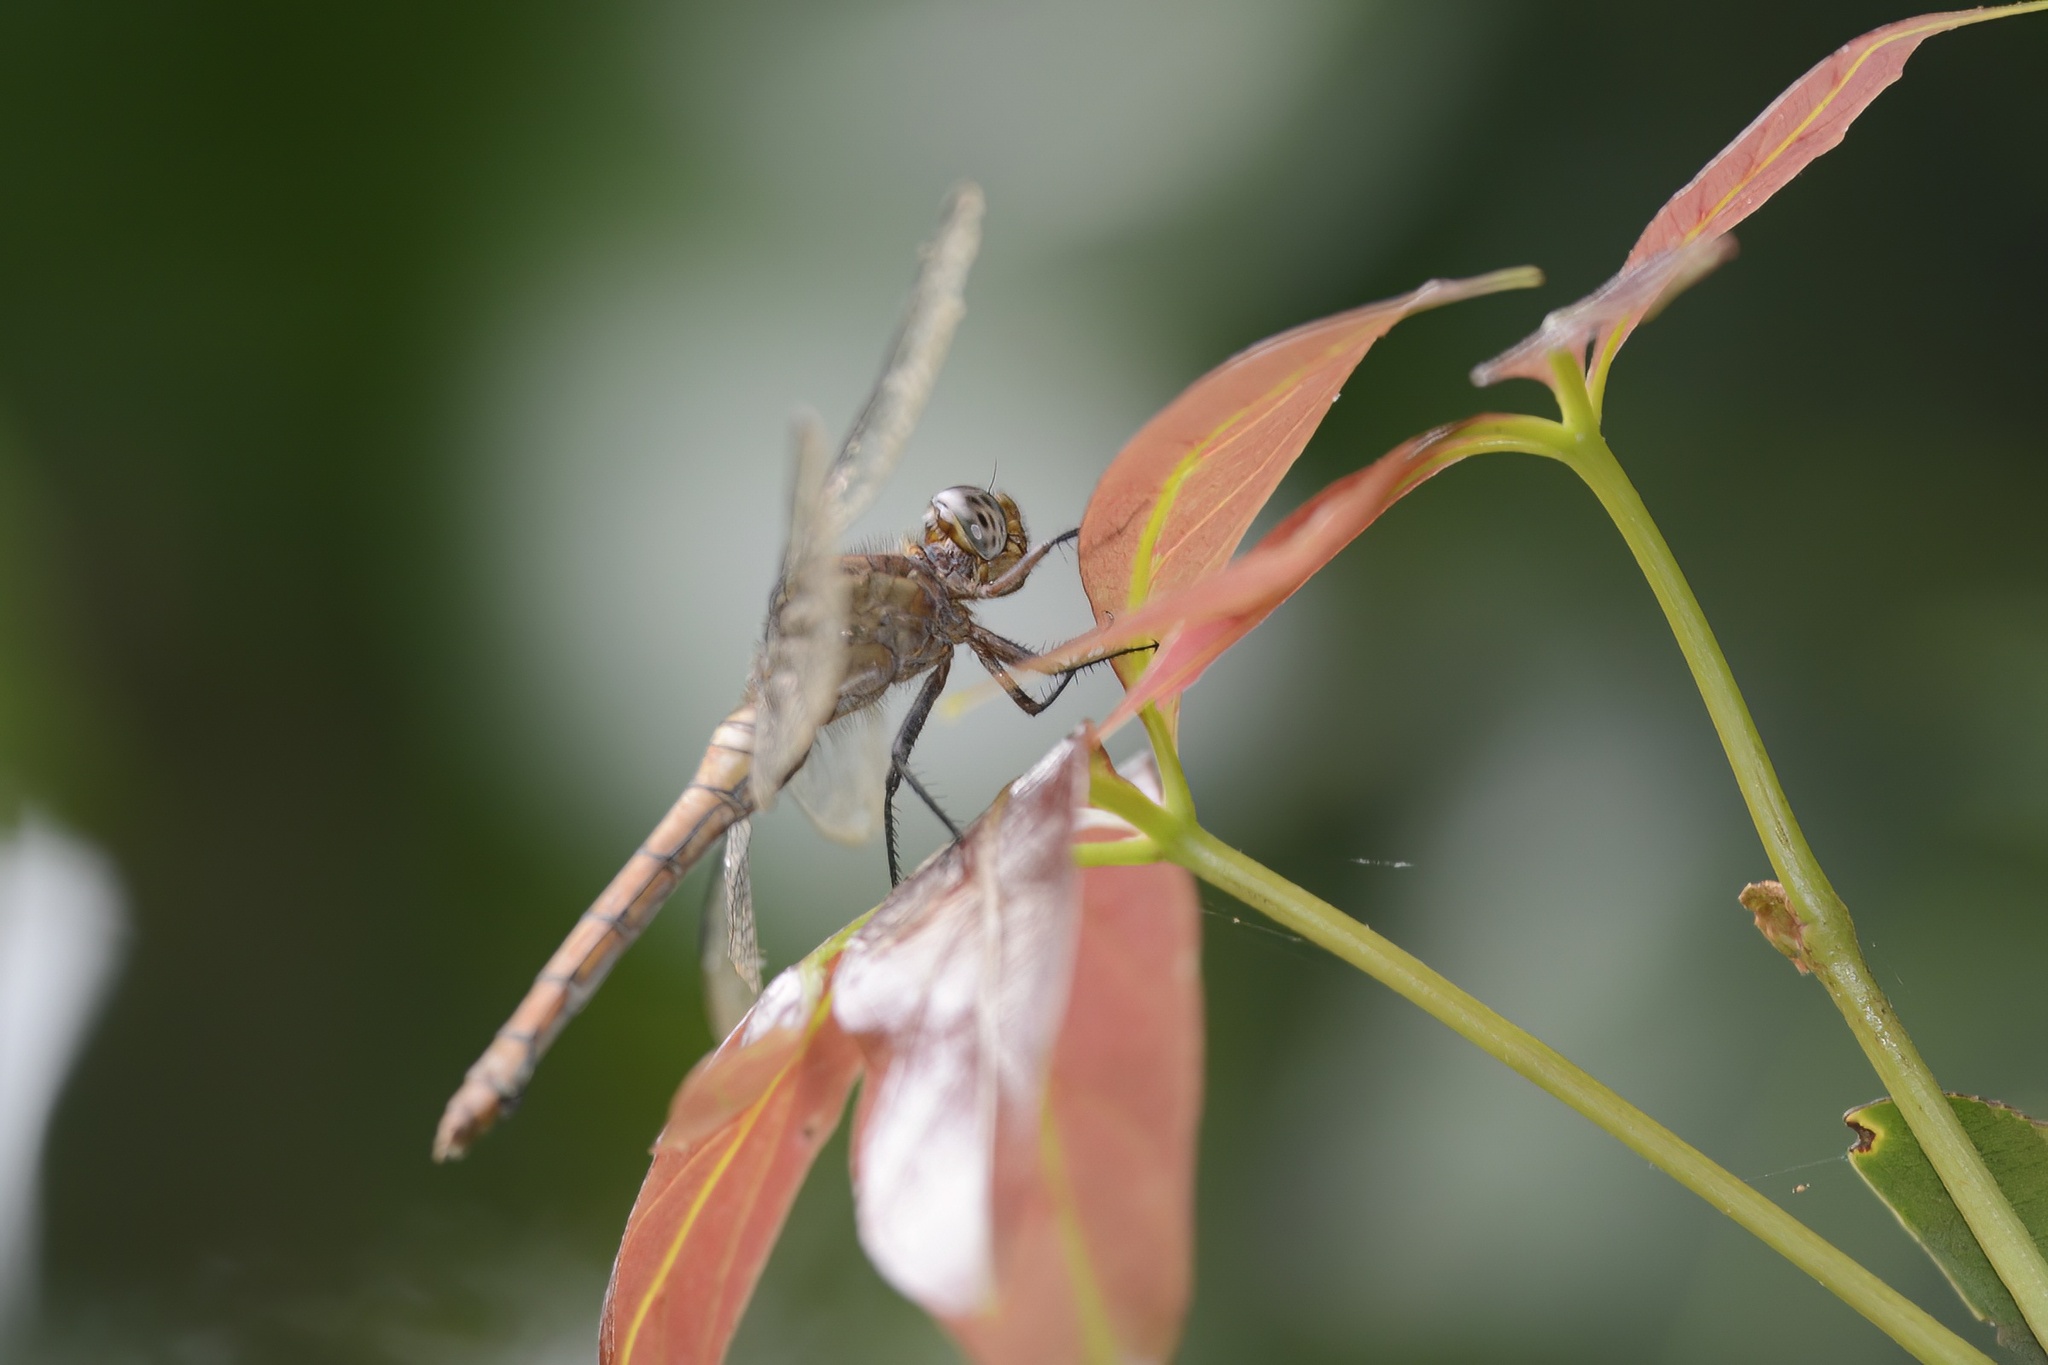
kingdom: Animalia
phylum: Arthropoda
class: Insecta
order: Odonata
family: Libellulidae
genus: Orthetrum
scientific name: Orthetrum villosovittatum
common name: Firery skimmer
